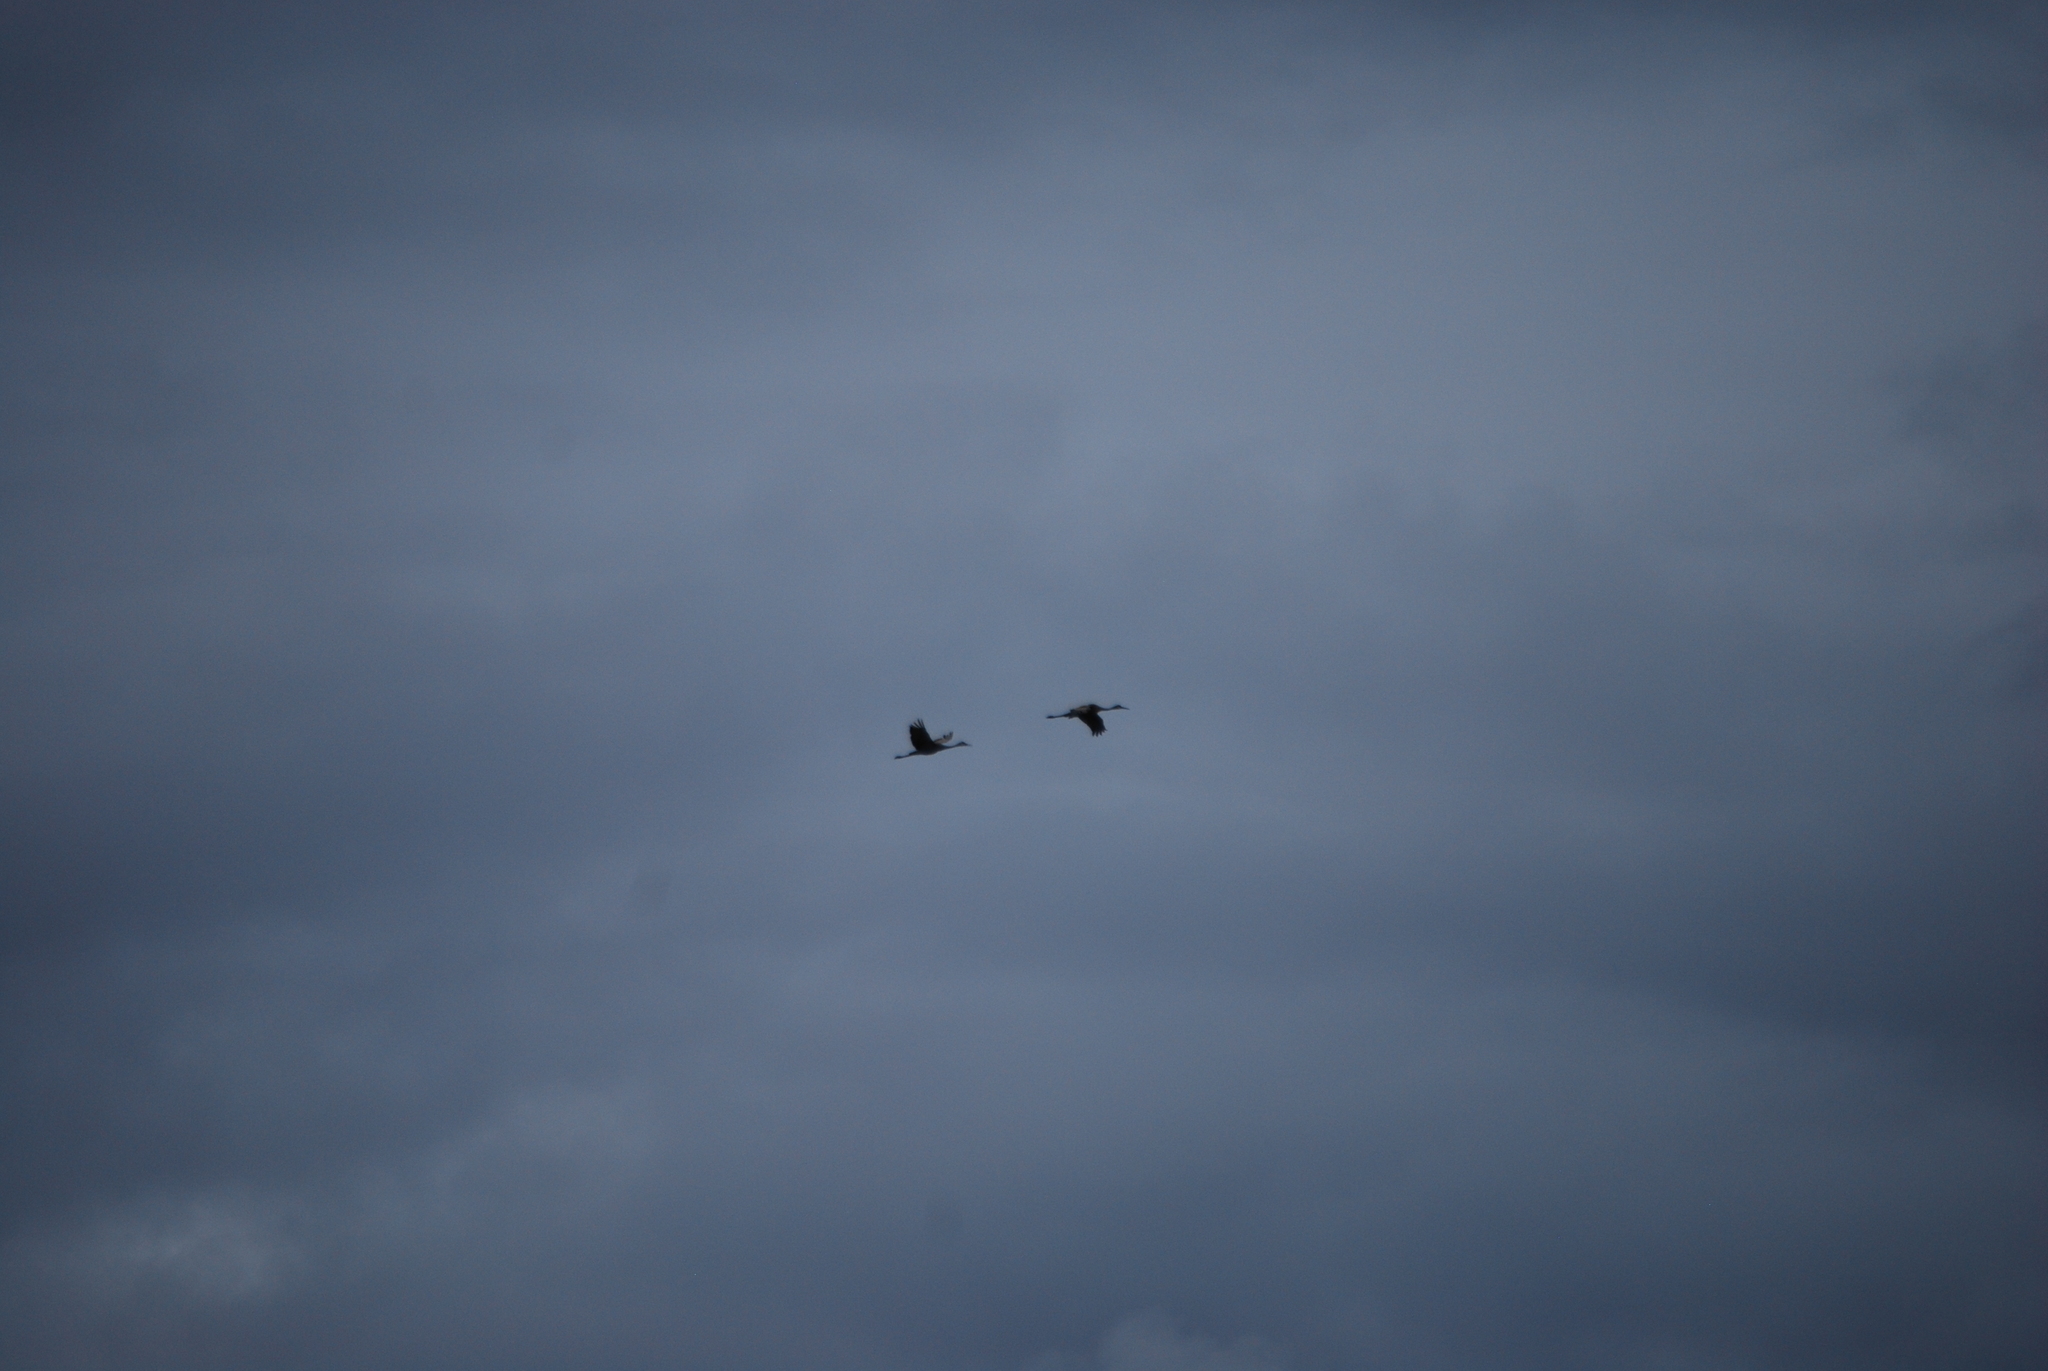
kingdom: Animalia
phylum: Chordata
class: Aves
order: Gruiformes
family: Gruidae
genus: Grus
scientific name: Grus canadensis
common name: Sandhill crane
